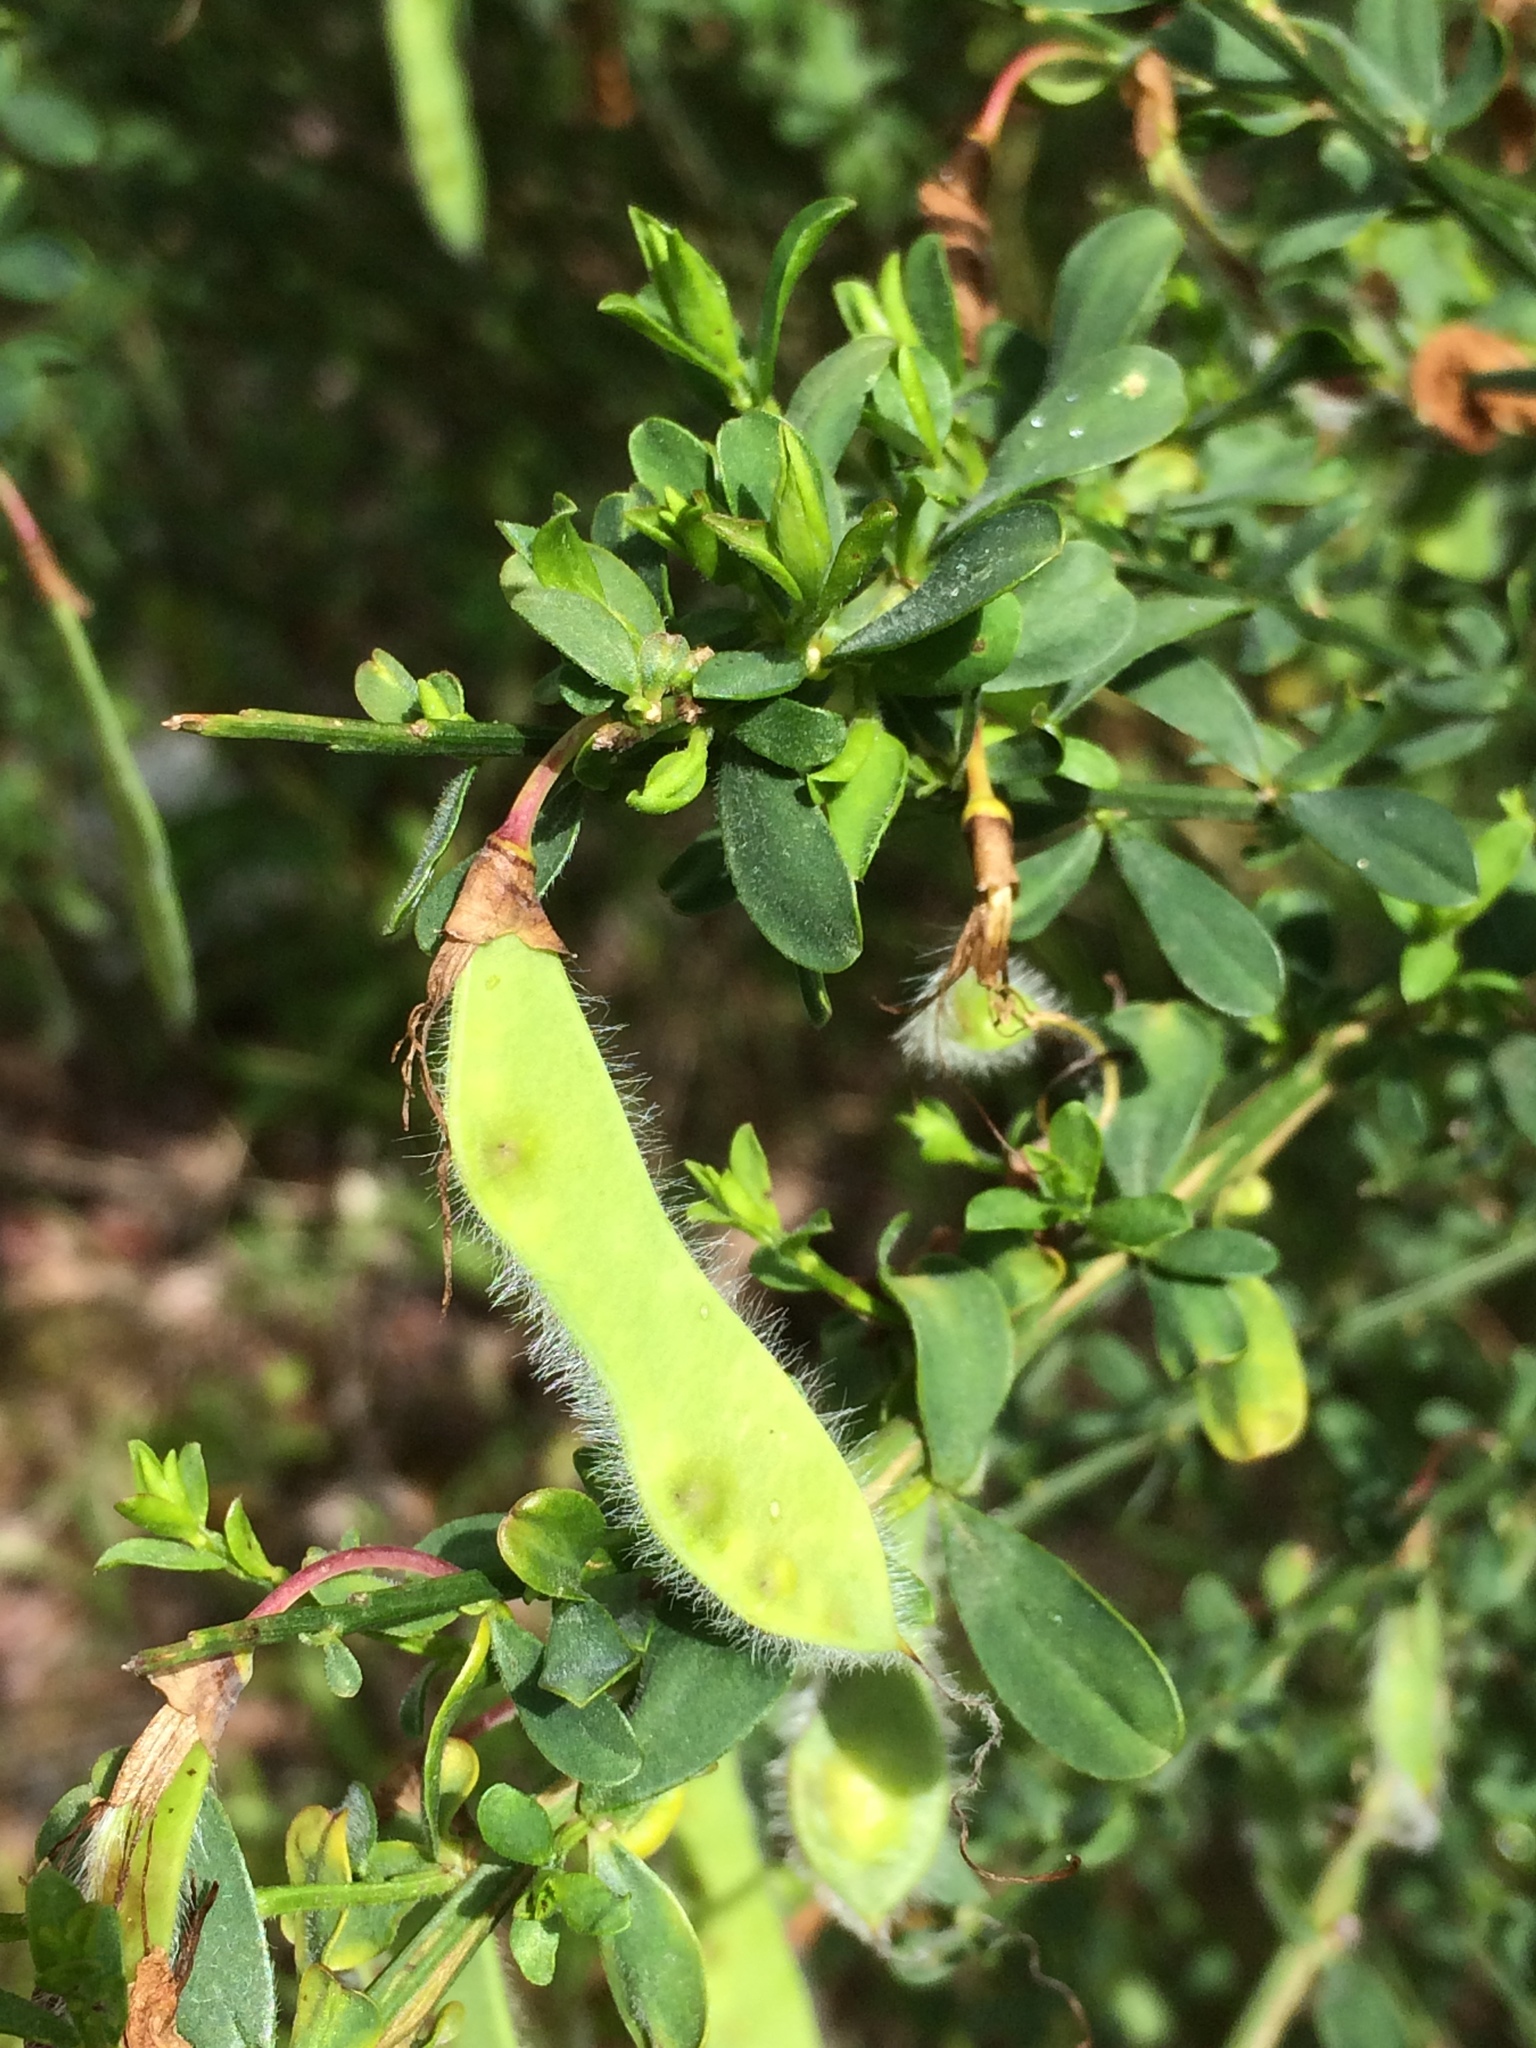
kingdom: Plantae
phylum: Tracheophyta
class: Magnoliopsida
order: Fabales
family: Fabaceae
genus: Cytisus
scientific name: Cytisus scoparius
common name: Scotch broom
